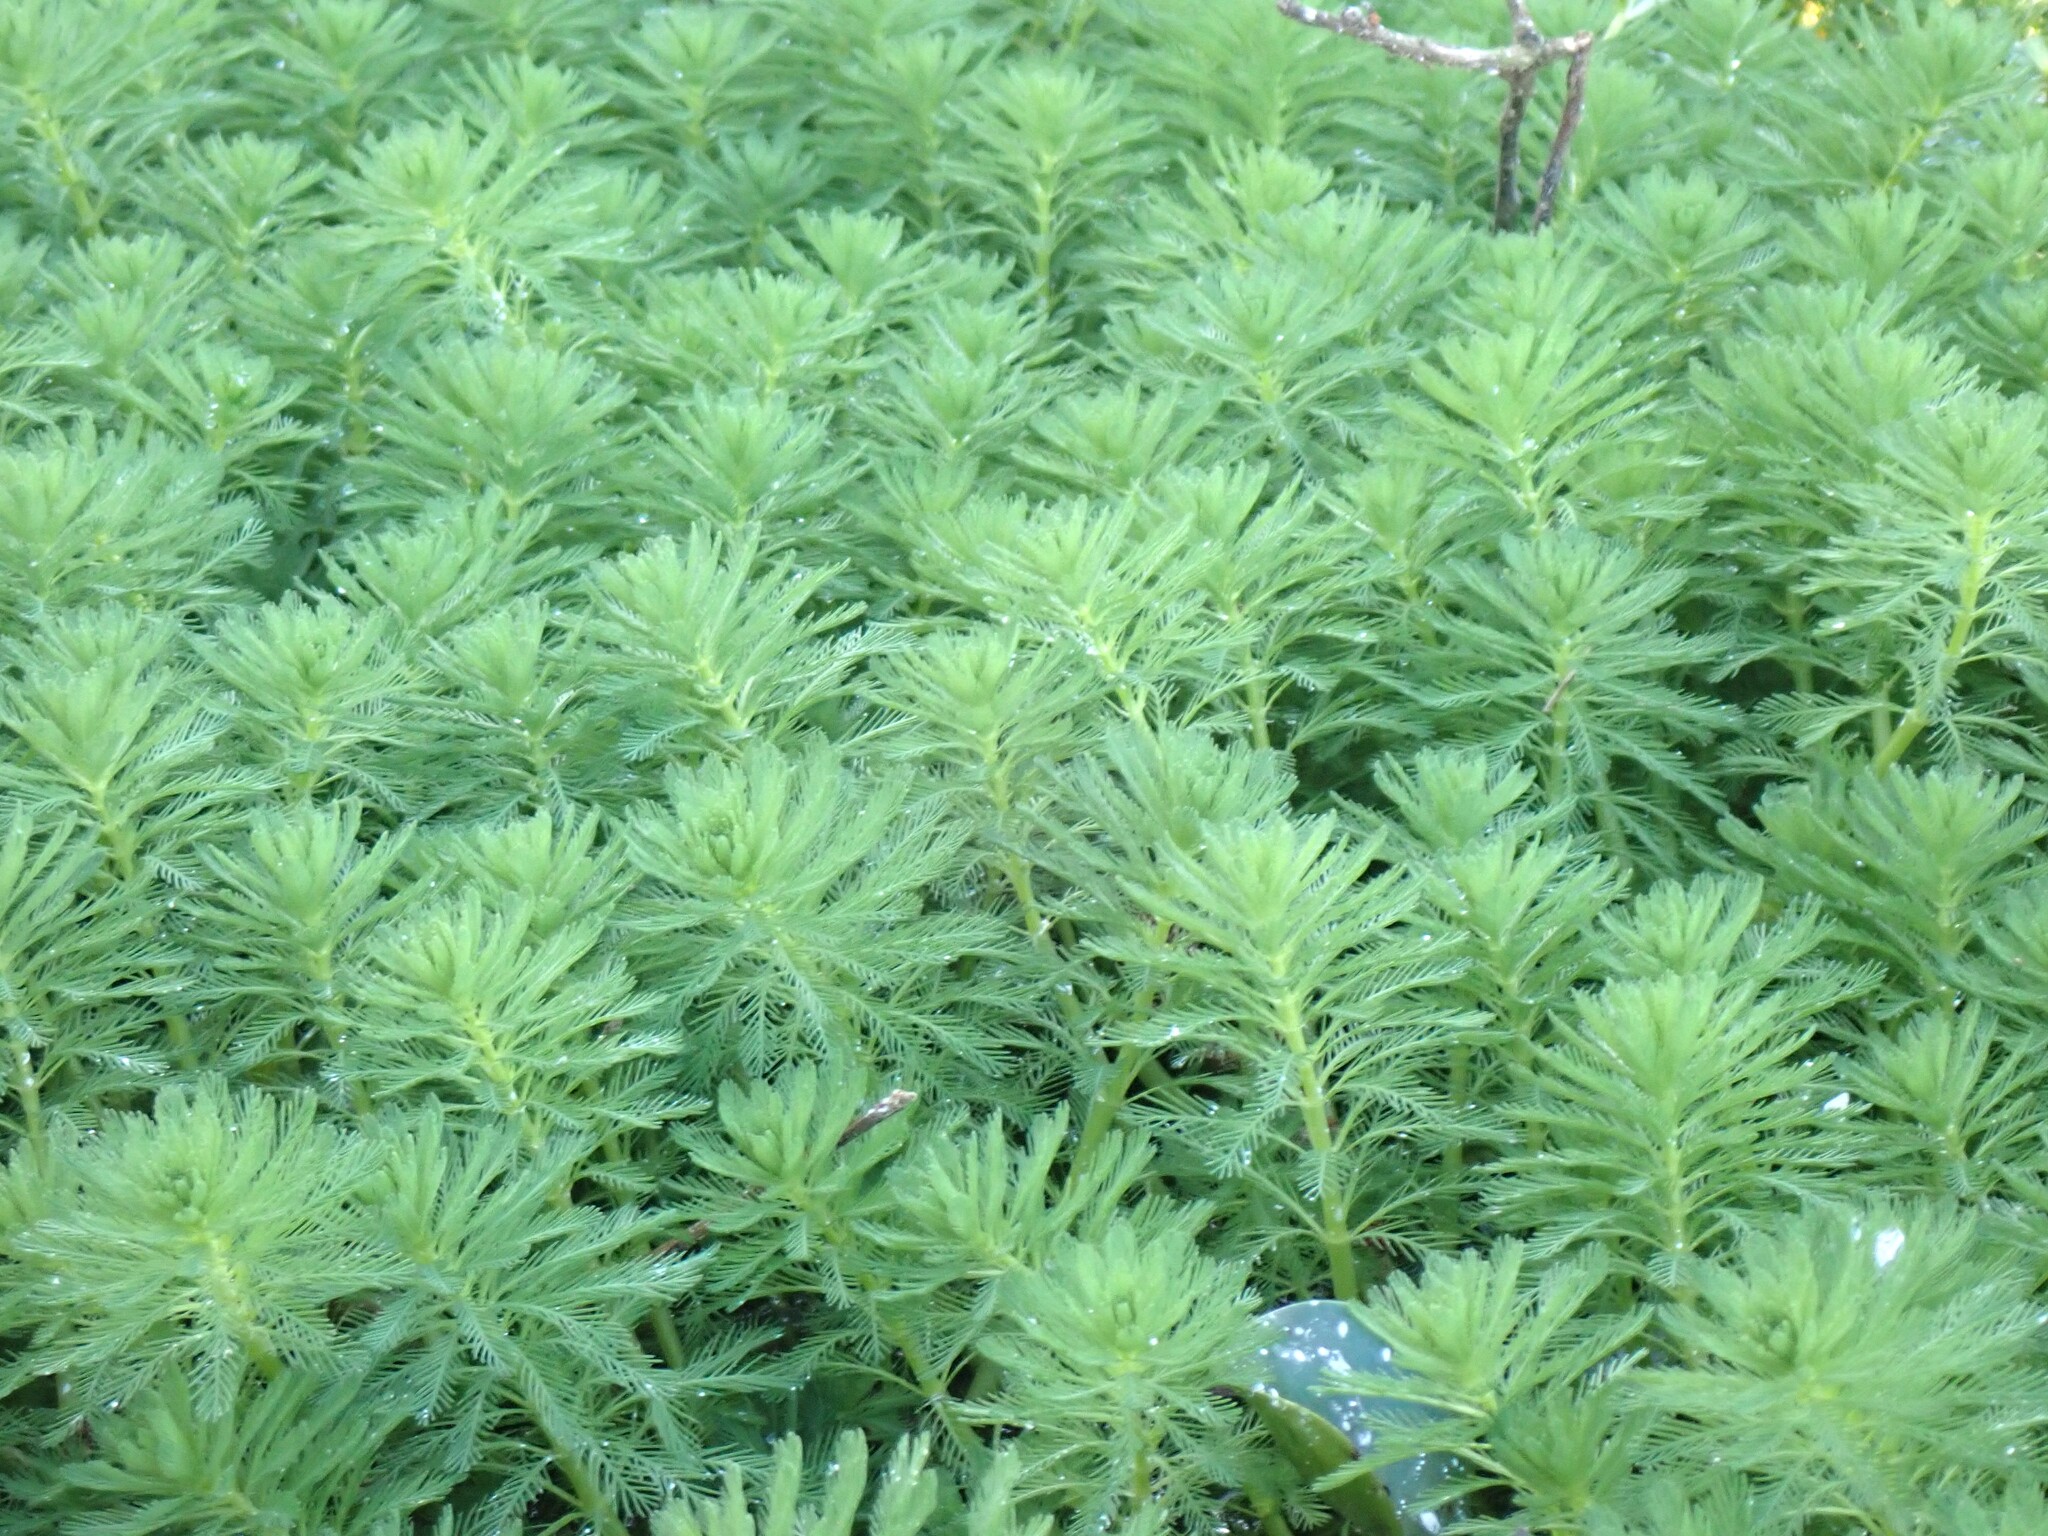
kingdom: Plantae
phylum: Tracheophyta
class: Magnoliopsida
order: Saxifragales
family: Haloragaceae
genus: Myriophyllum
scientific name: Myriophyllum aquaticum
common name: Parrot's feather
